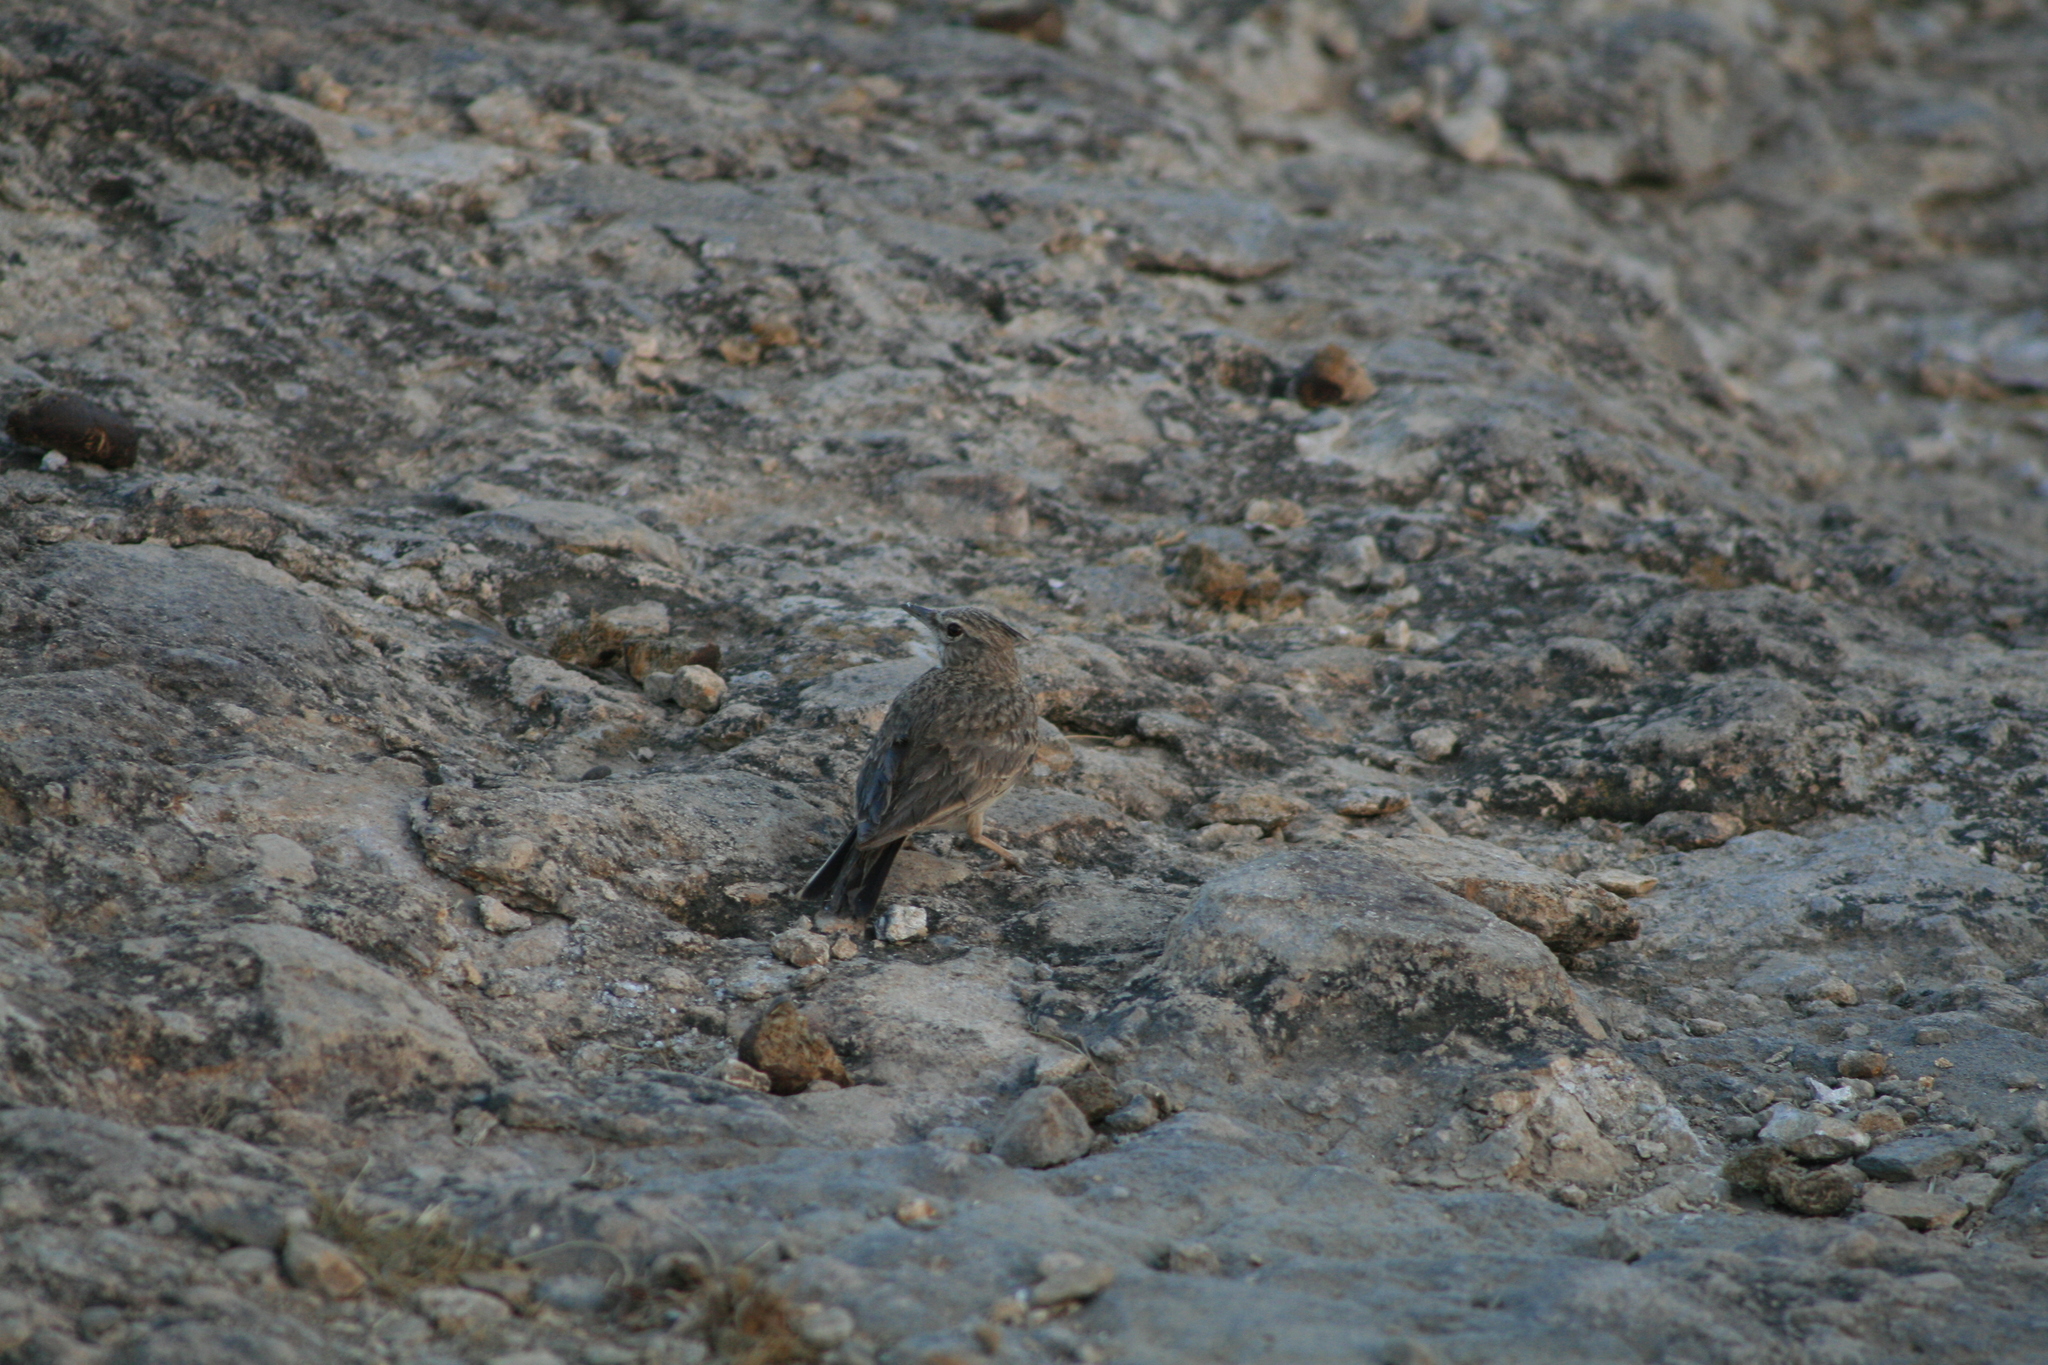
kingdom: Animalia
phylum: Chordata
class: Aves
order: Passeriformes
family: Alaudidae
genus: Galerida
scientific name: Galerida cristata
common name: Crested lark
